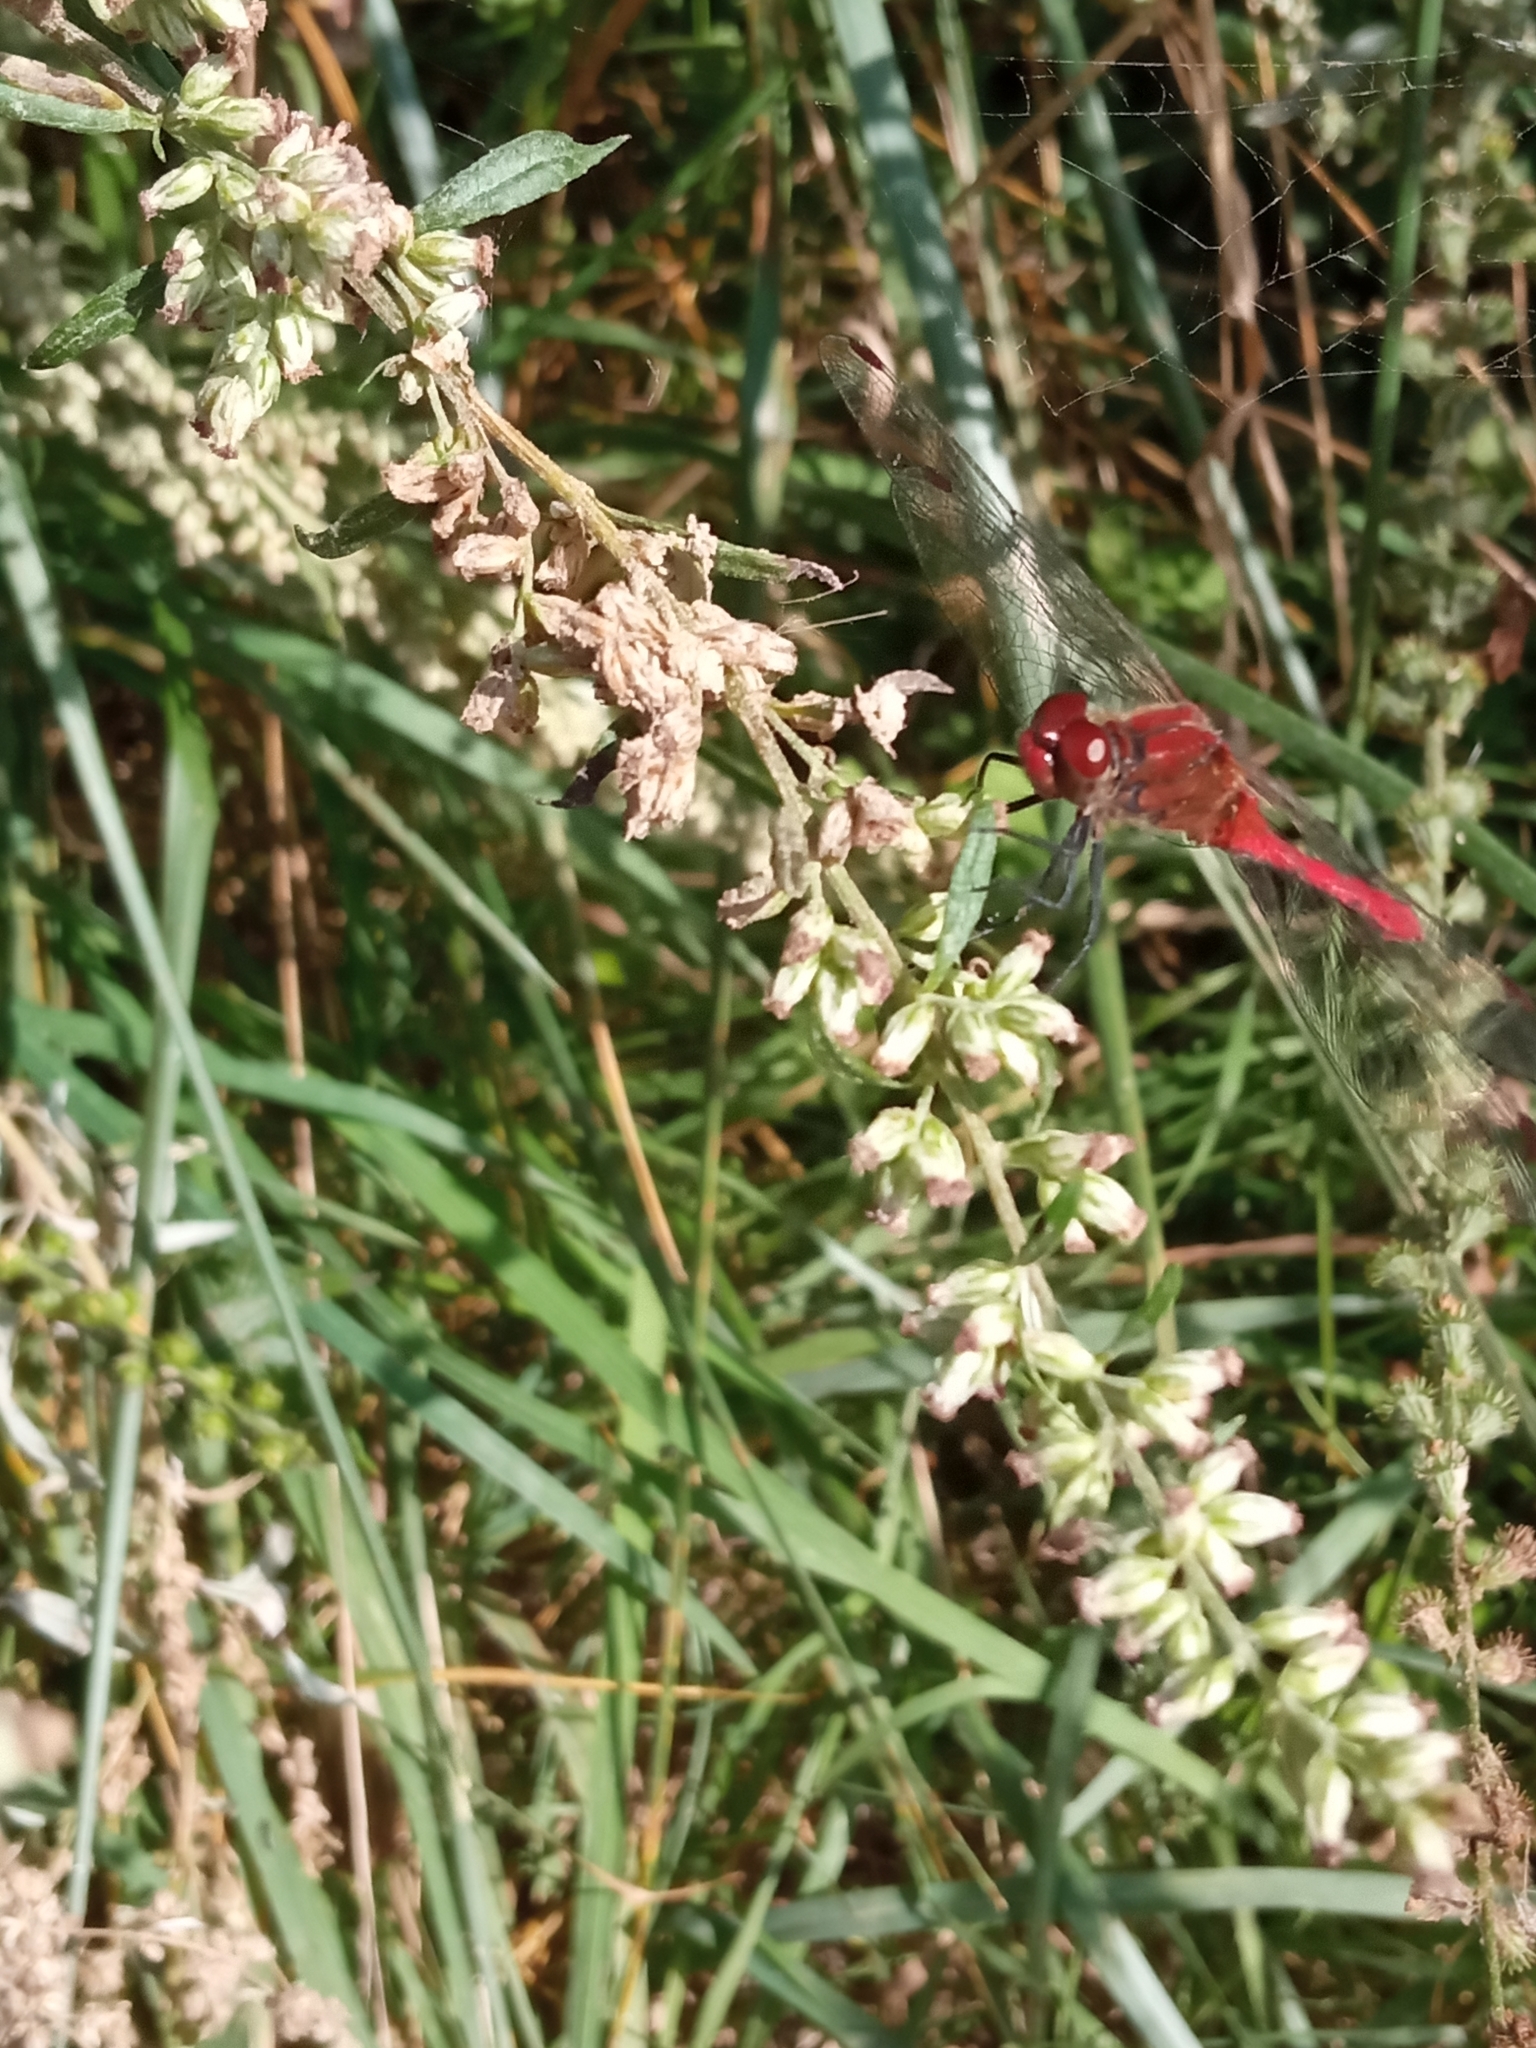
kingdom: Animalia
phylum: Arthropoda
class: Insecta
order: Odonata
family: Libellulidae
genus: Sympetrum
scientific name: Sympetrum sanguineum
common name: Ruddy darter
